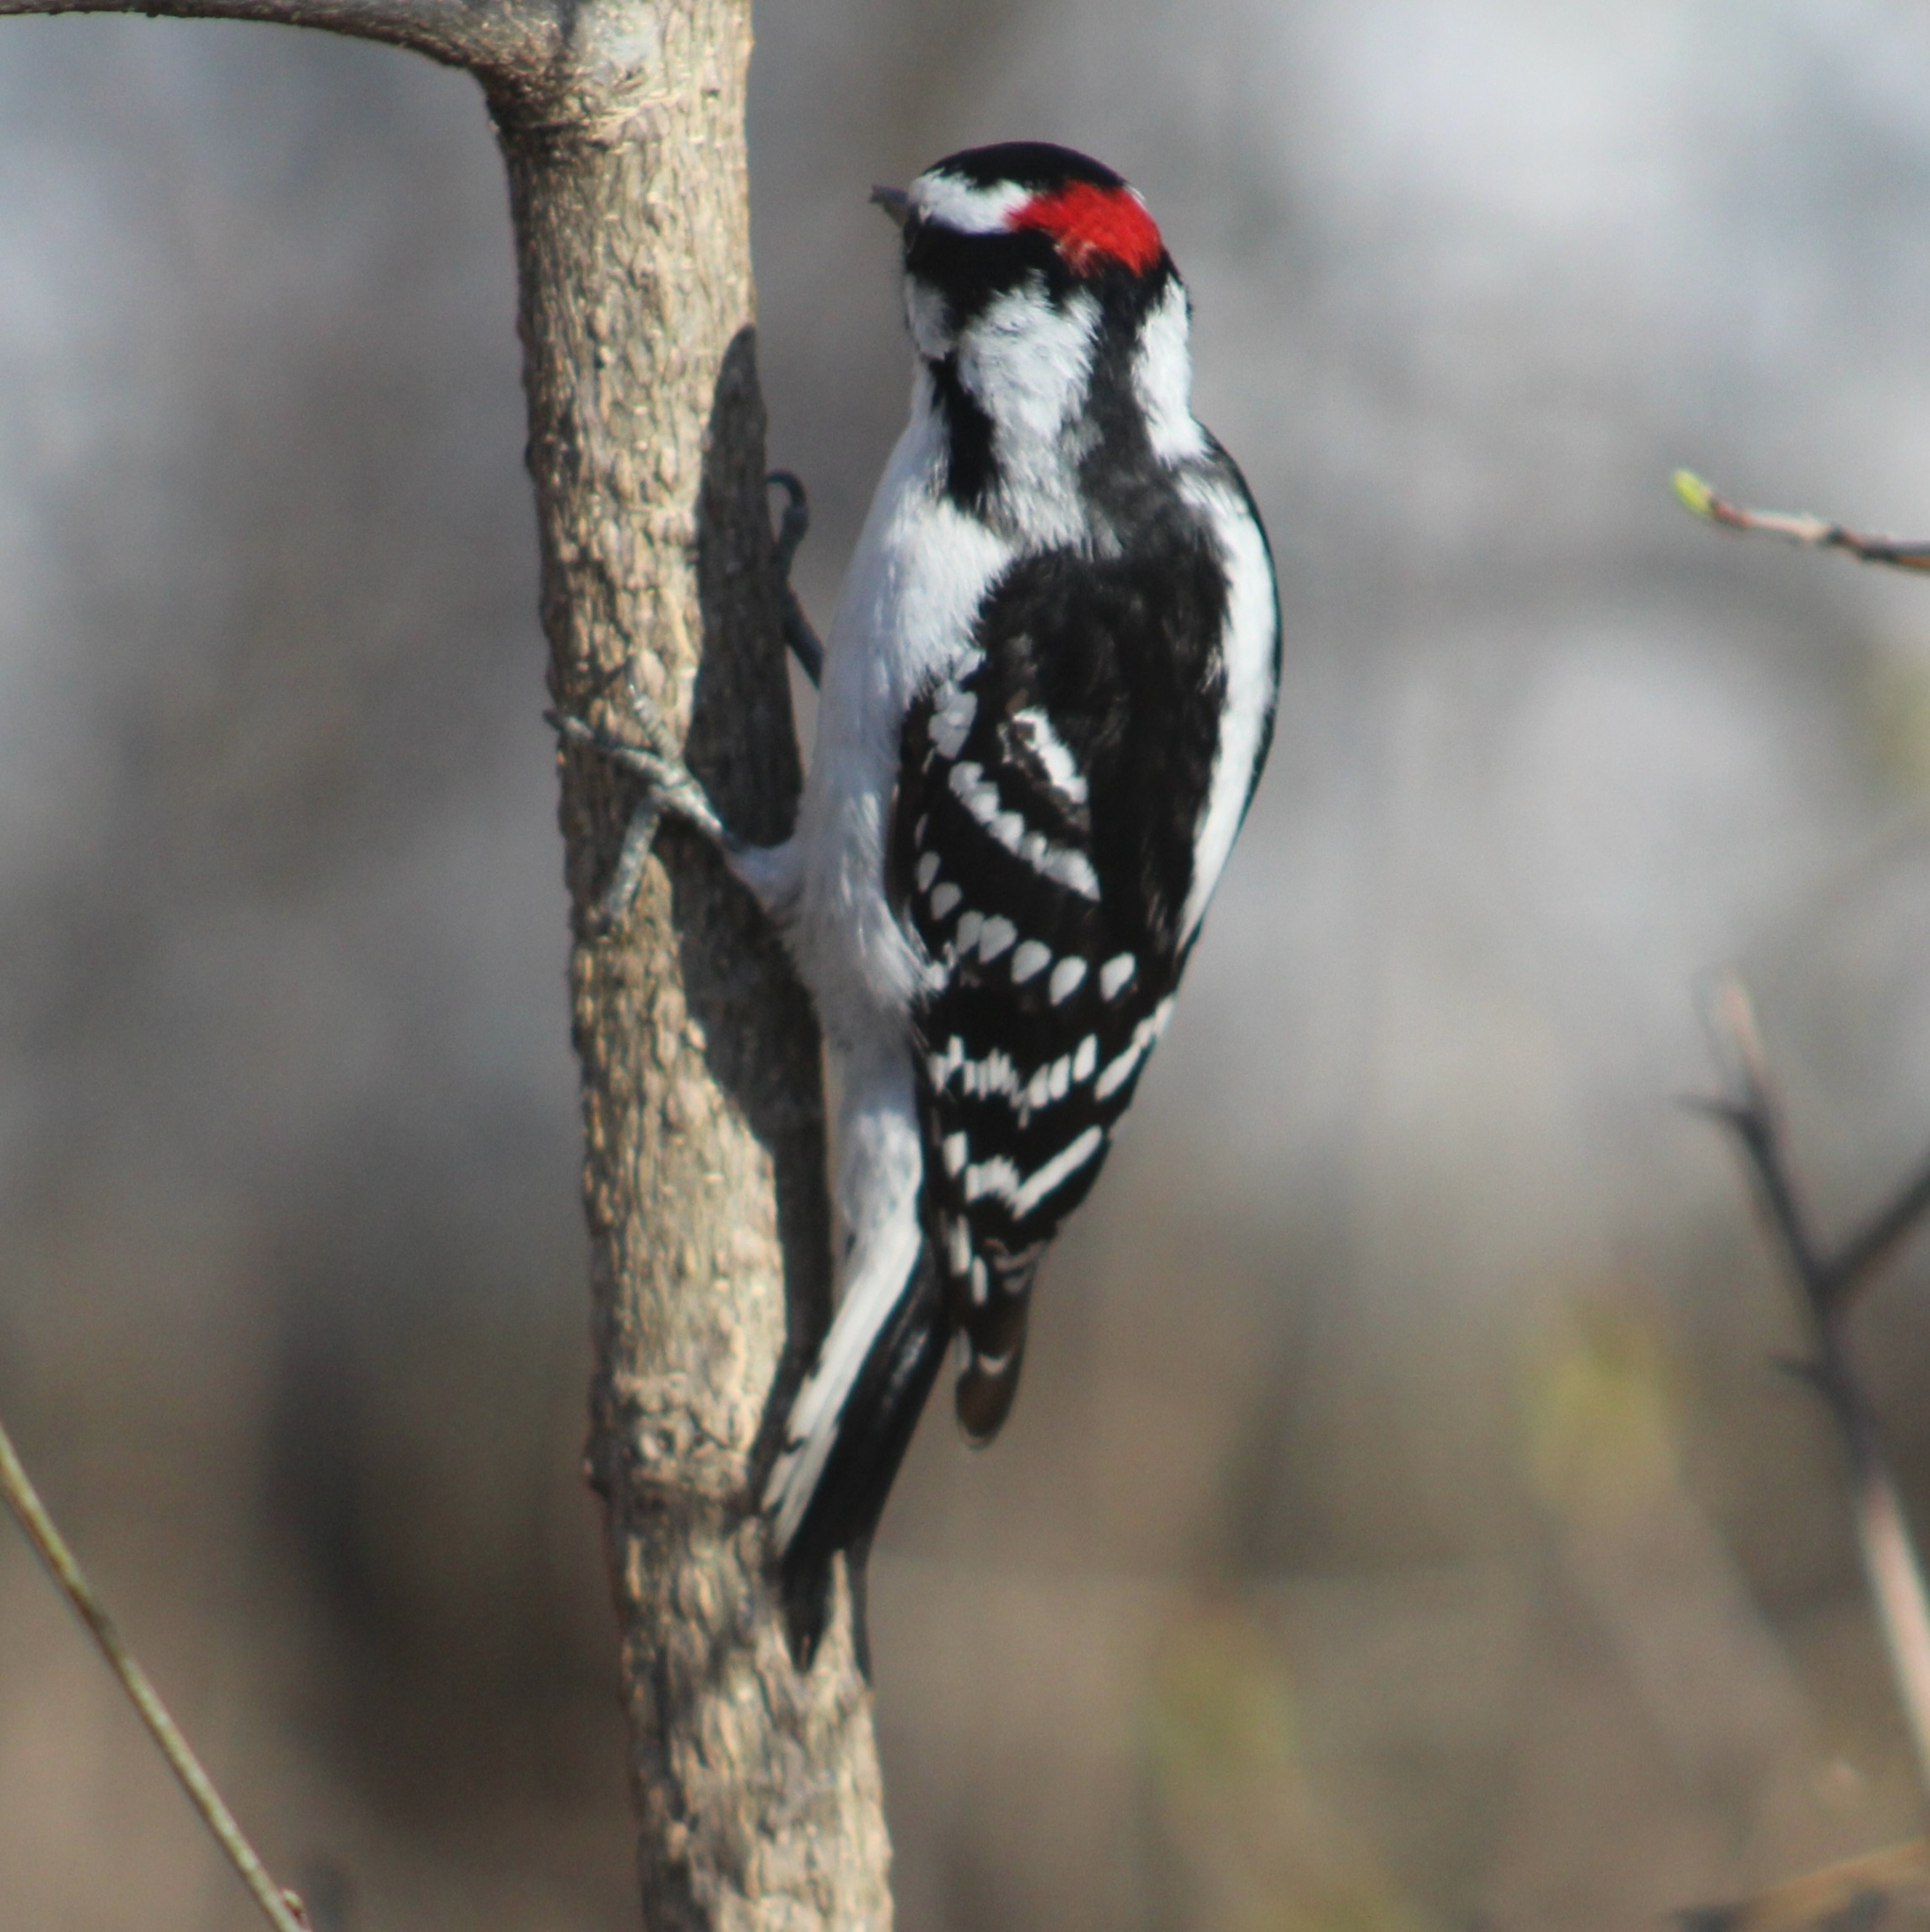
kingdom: Animalia
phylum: Chordata
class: Aves
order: Piciformes
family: Picidae
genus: Dryobates
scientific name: Dryobates pubescens
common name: Downy woodpecker
